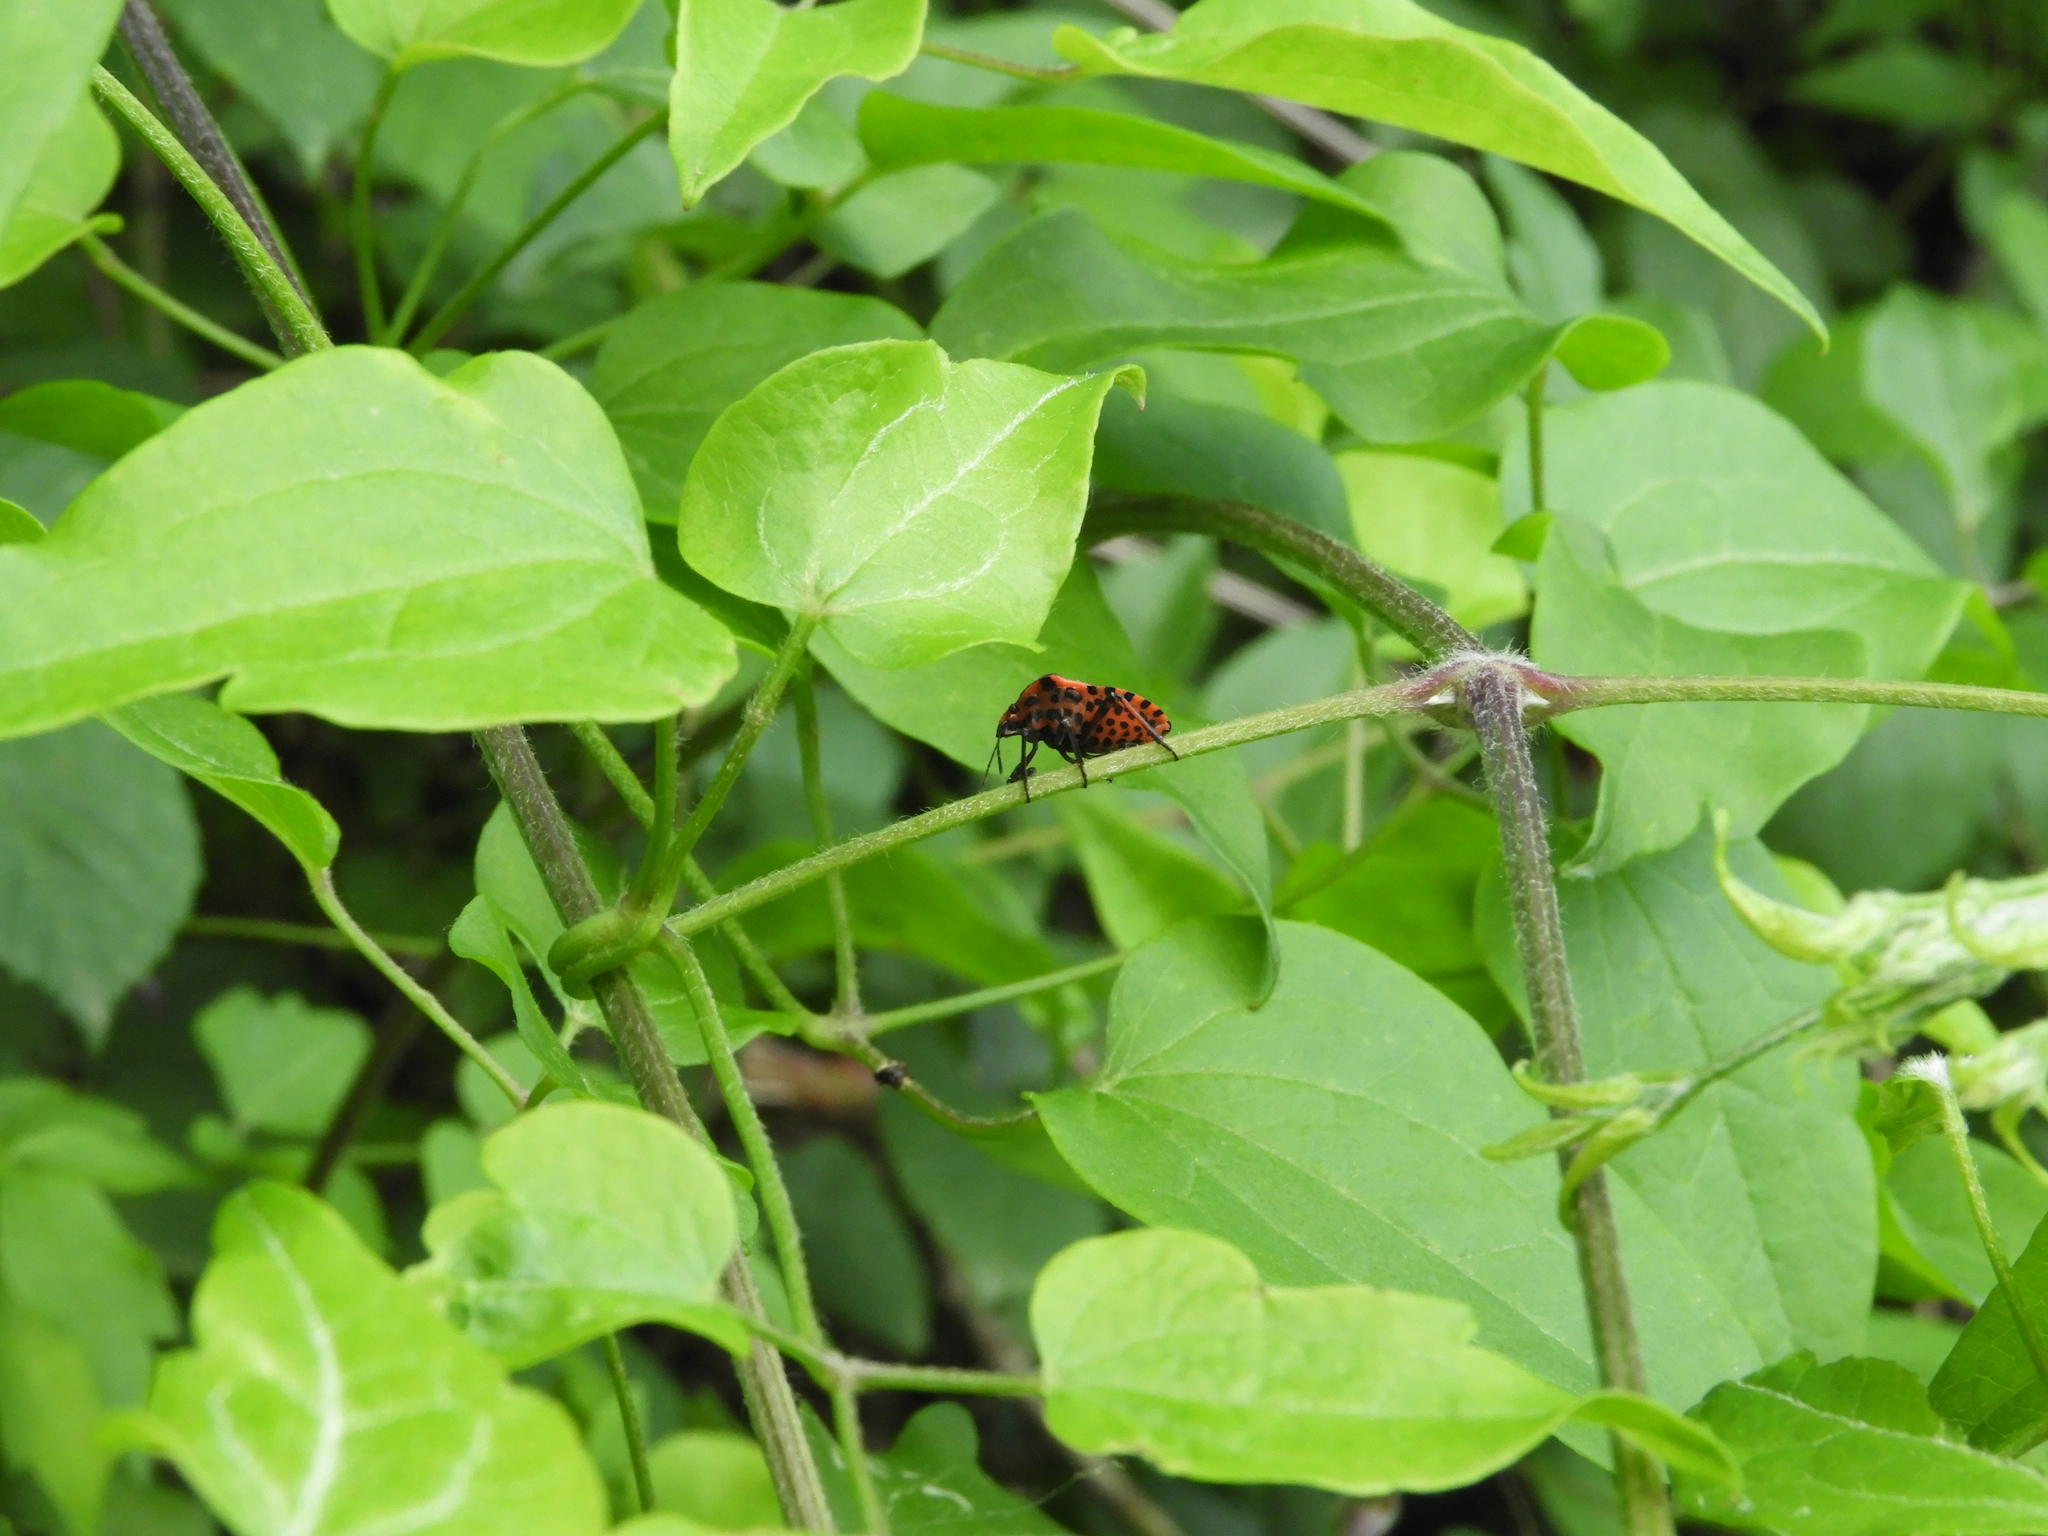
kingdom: Animalia
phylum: Arthropoda
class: Insecta
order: Hemiptera
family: Pentatomidae
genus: Graphosoma
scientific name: Graphosoma italicum
